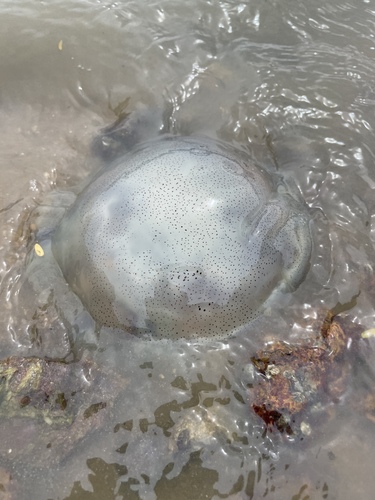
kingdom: Animalia
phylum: Cnidaria
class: Scyphozoa
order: Rhizostomeae
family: Rhizostomatidae
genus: Rhopilema
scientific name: Rhopilema hispidum
